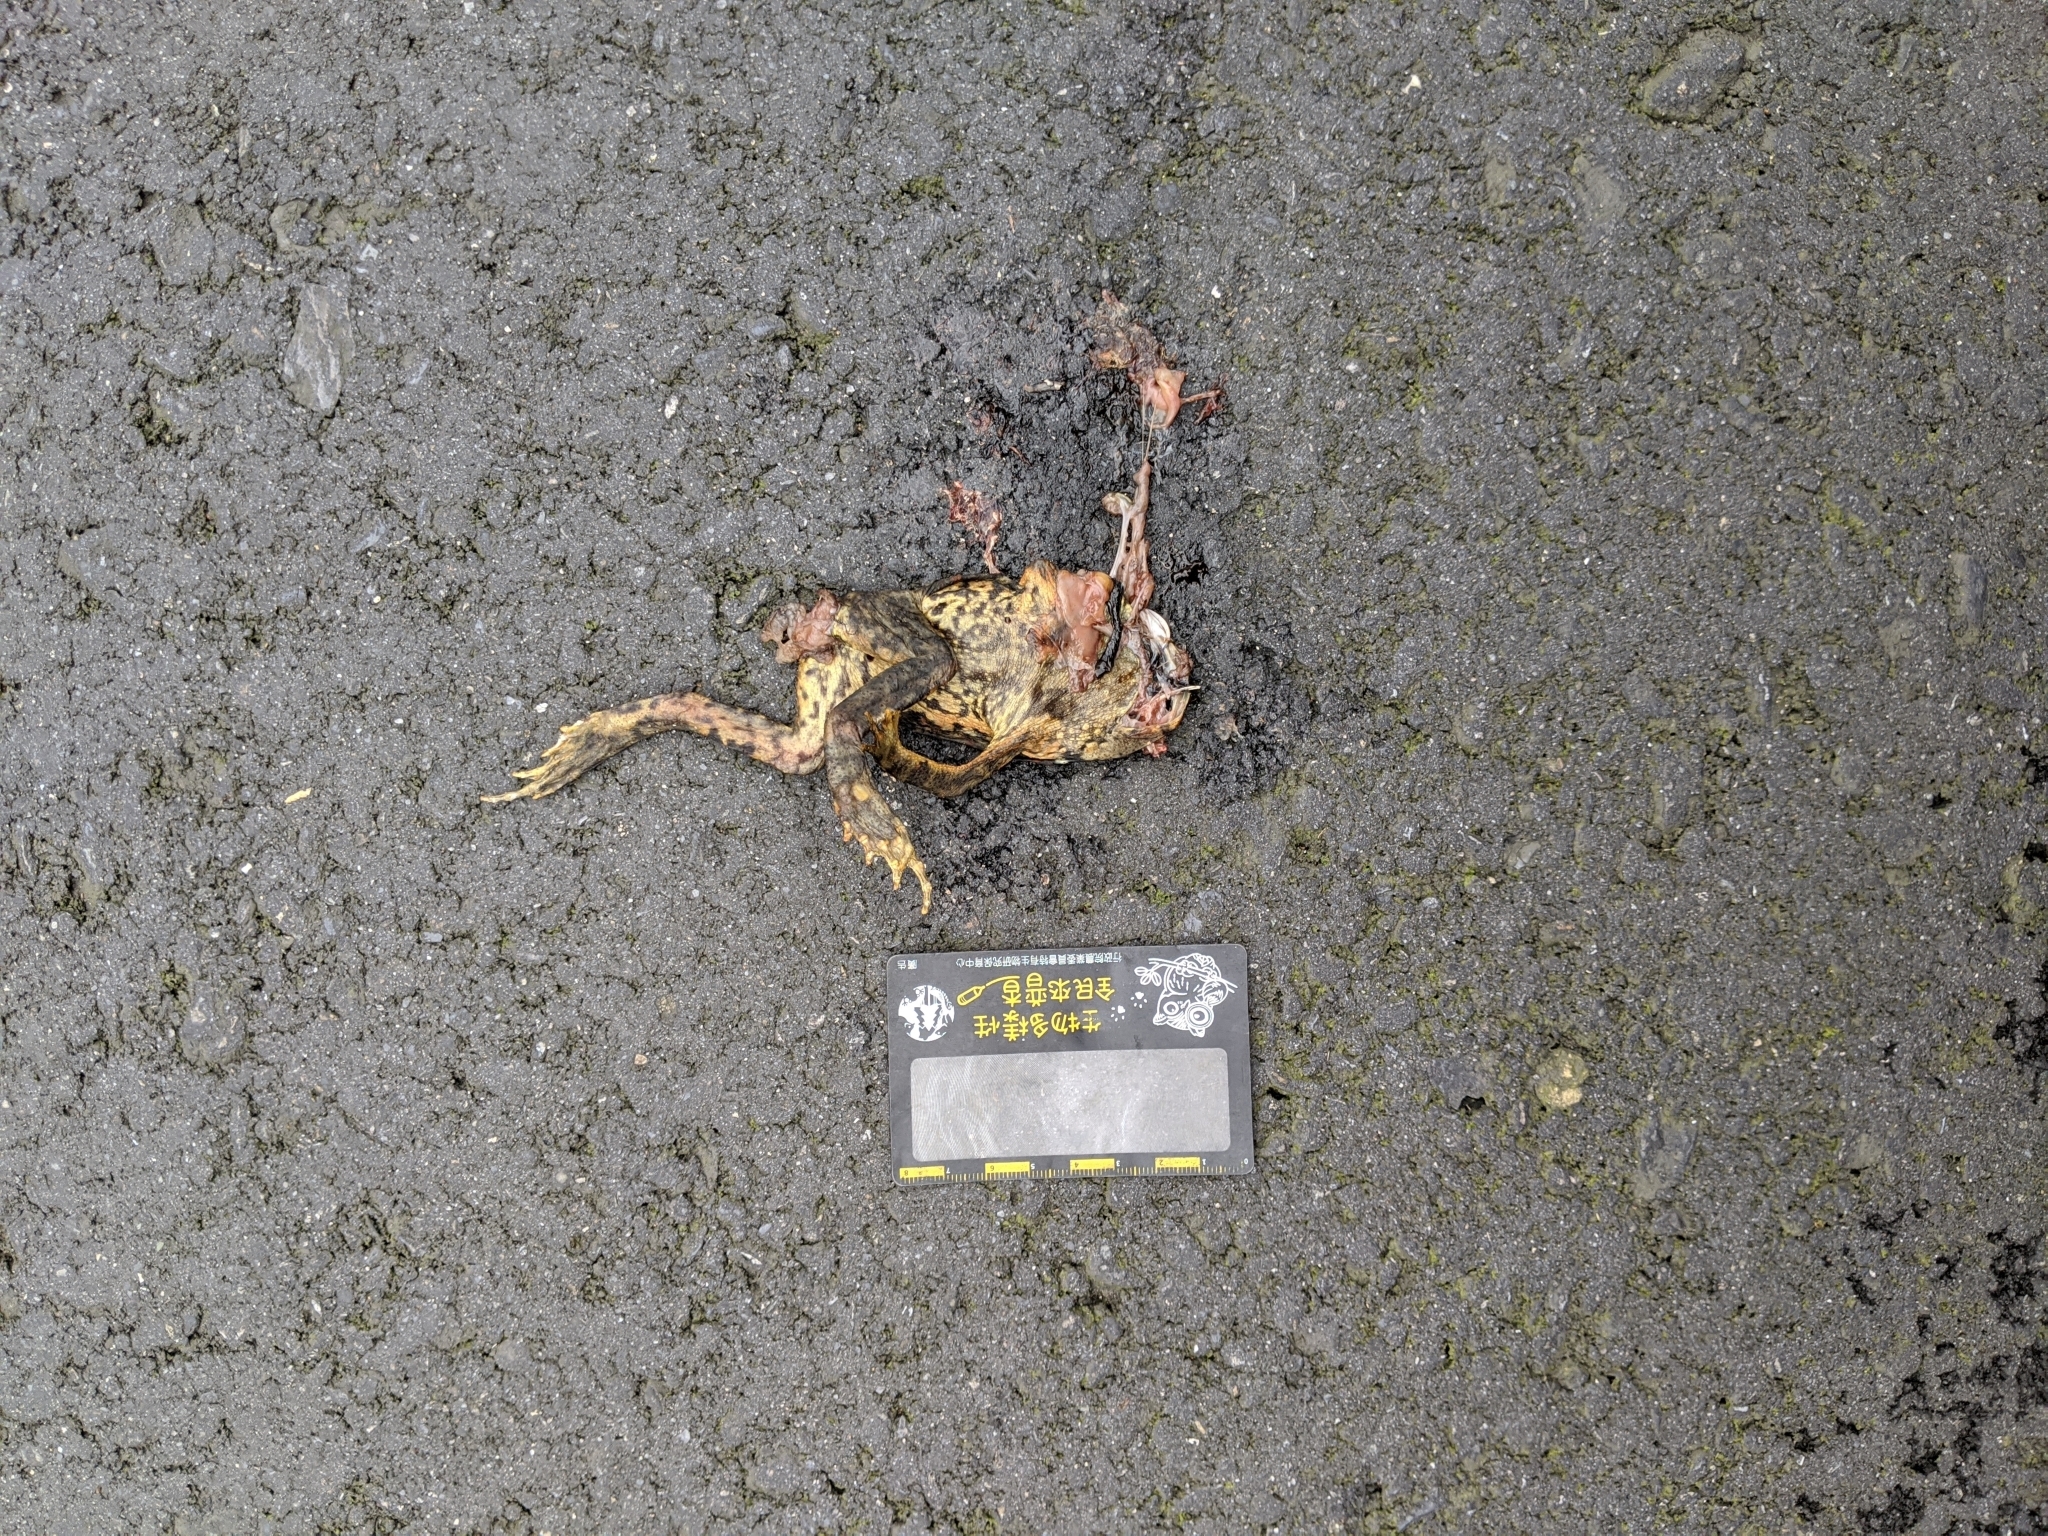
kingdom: Animalia
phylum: Chordata
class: Amphibia
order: Anura
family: Bufonidae
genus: Bufo
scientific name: Bufo bankorensis
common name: Bankor toad
